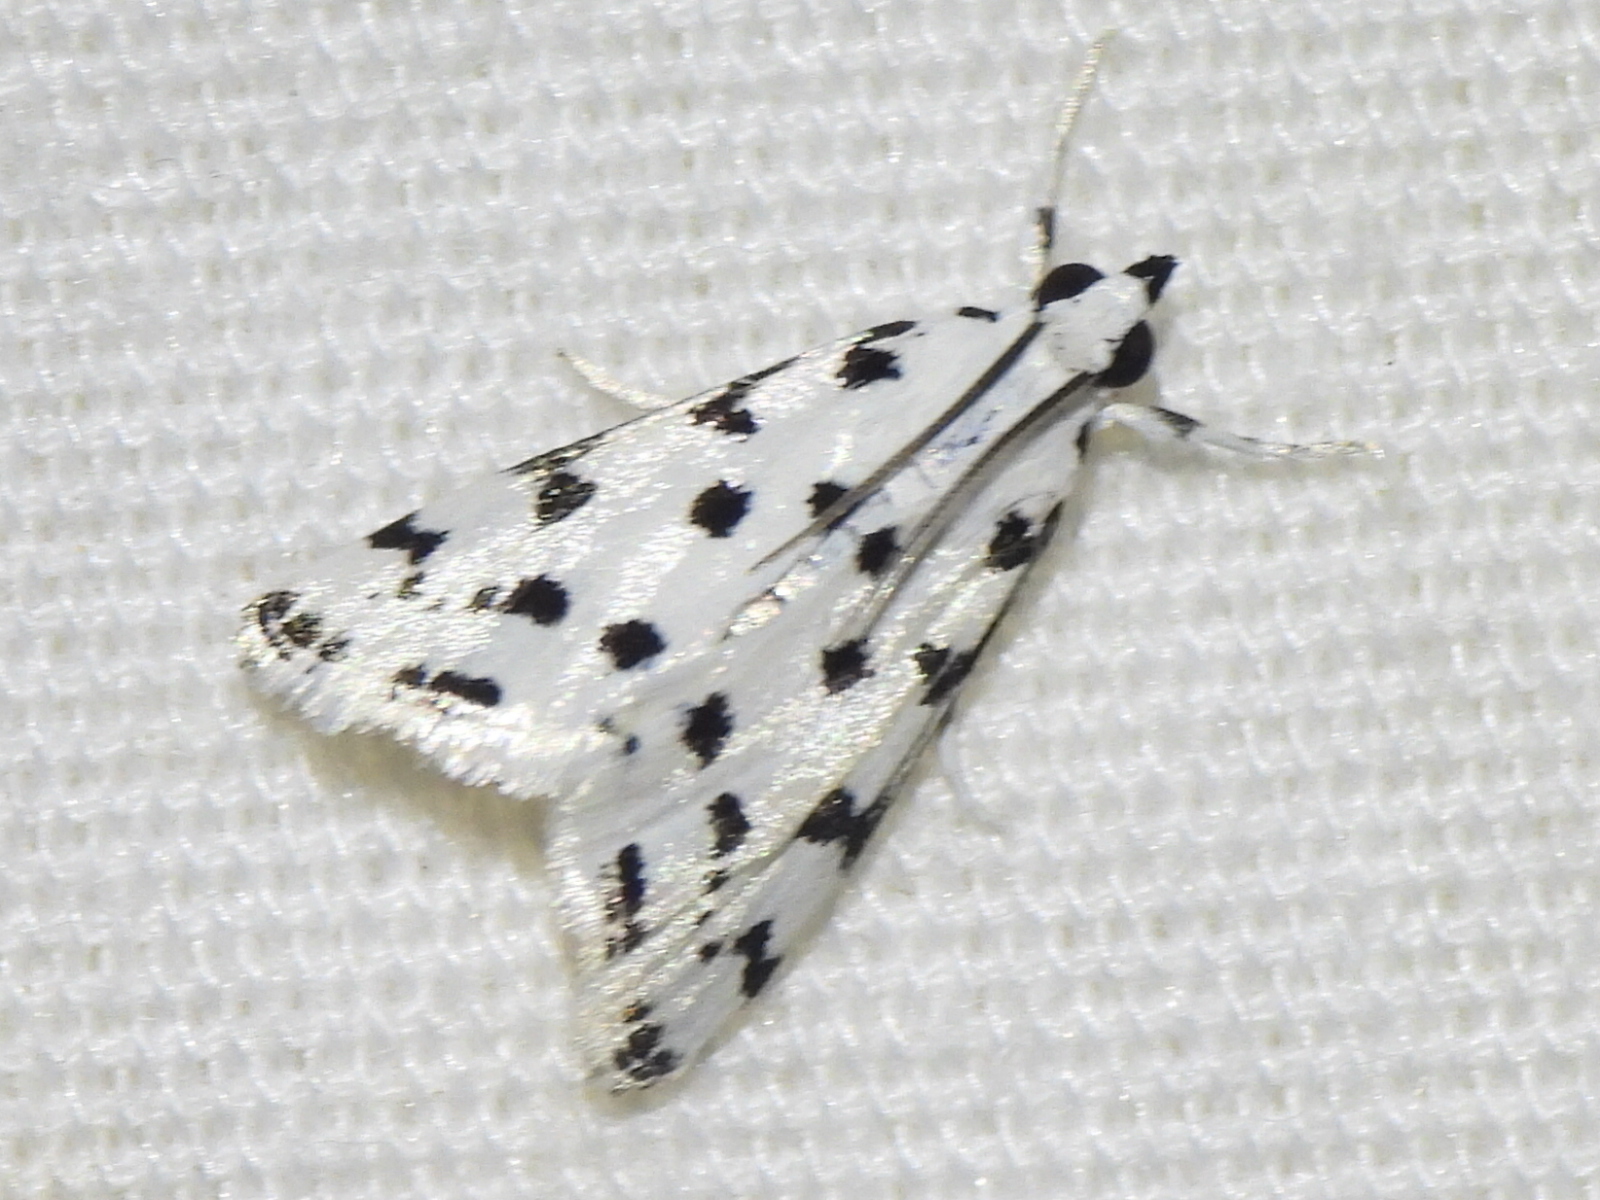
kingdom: Animalia
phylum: Arthropoda
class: Insecta
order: Lepidoptera
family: Crambidae
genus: Eustixia
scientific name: Eustixia pupula
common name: American cabbage pearl
